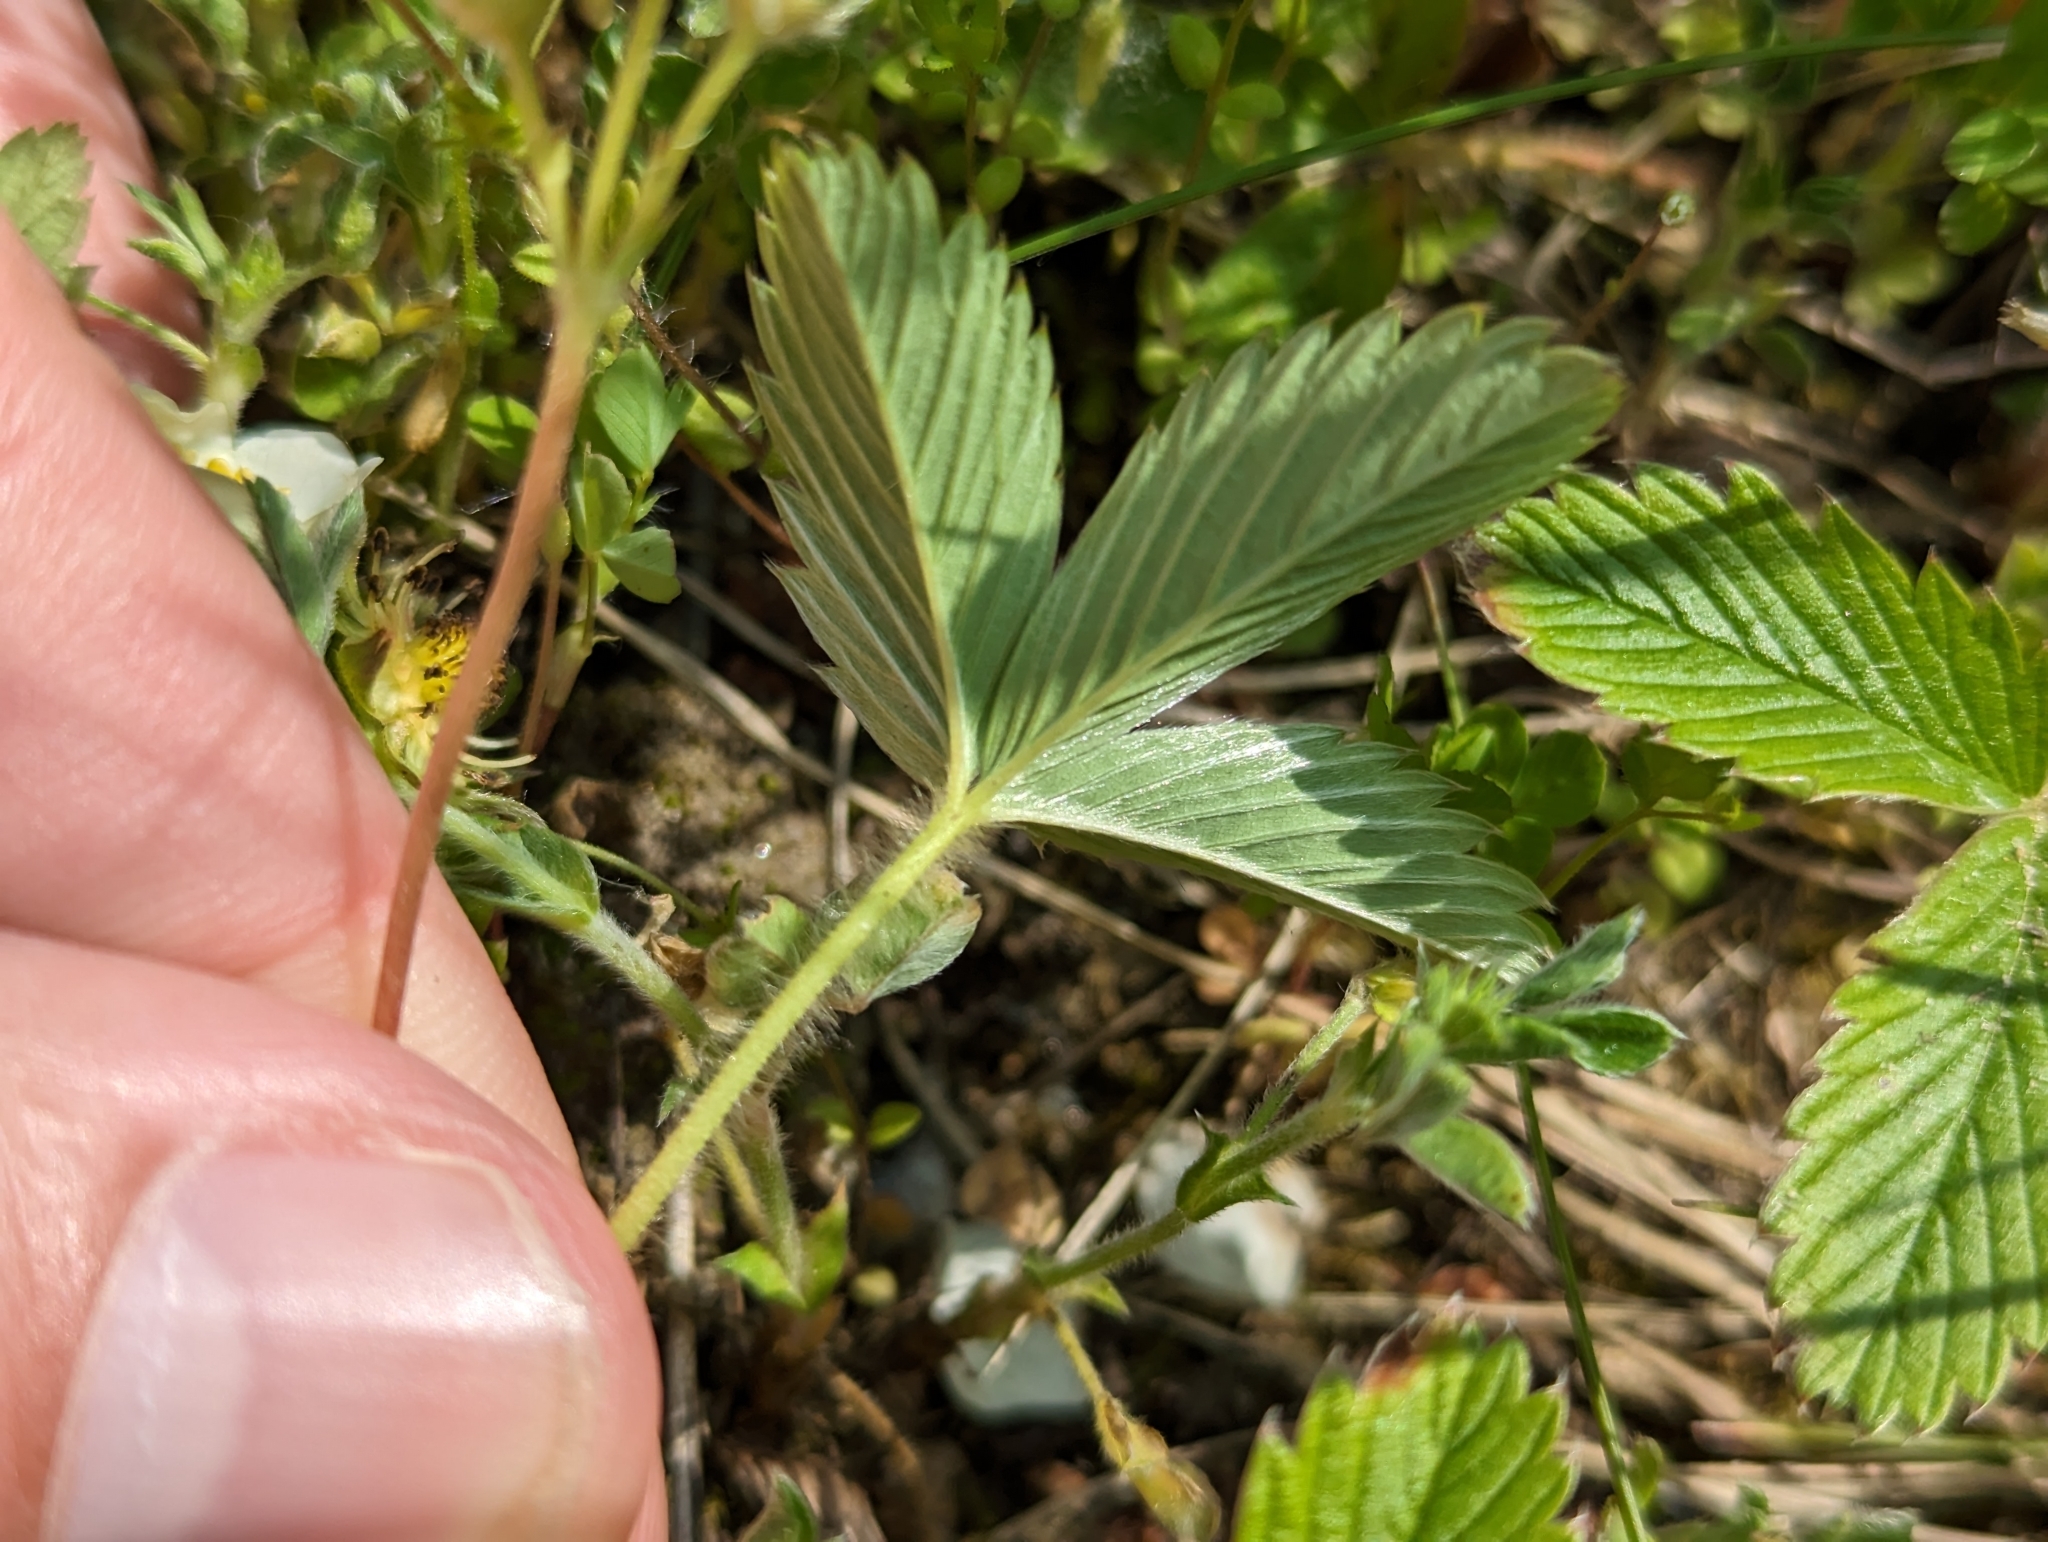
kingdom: Plantae
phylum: Tracheophyta
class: Magnoliopsida
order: Rosales
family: Rosaceae
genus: Fragaria
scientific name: Fragaria viridis
